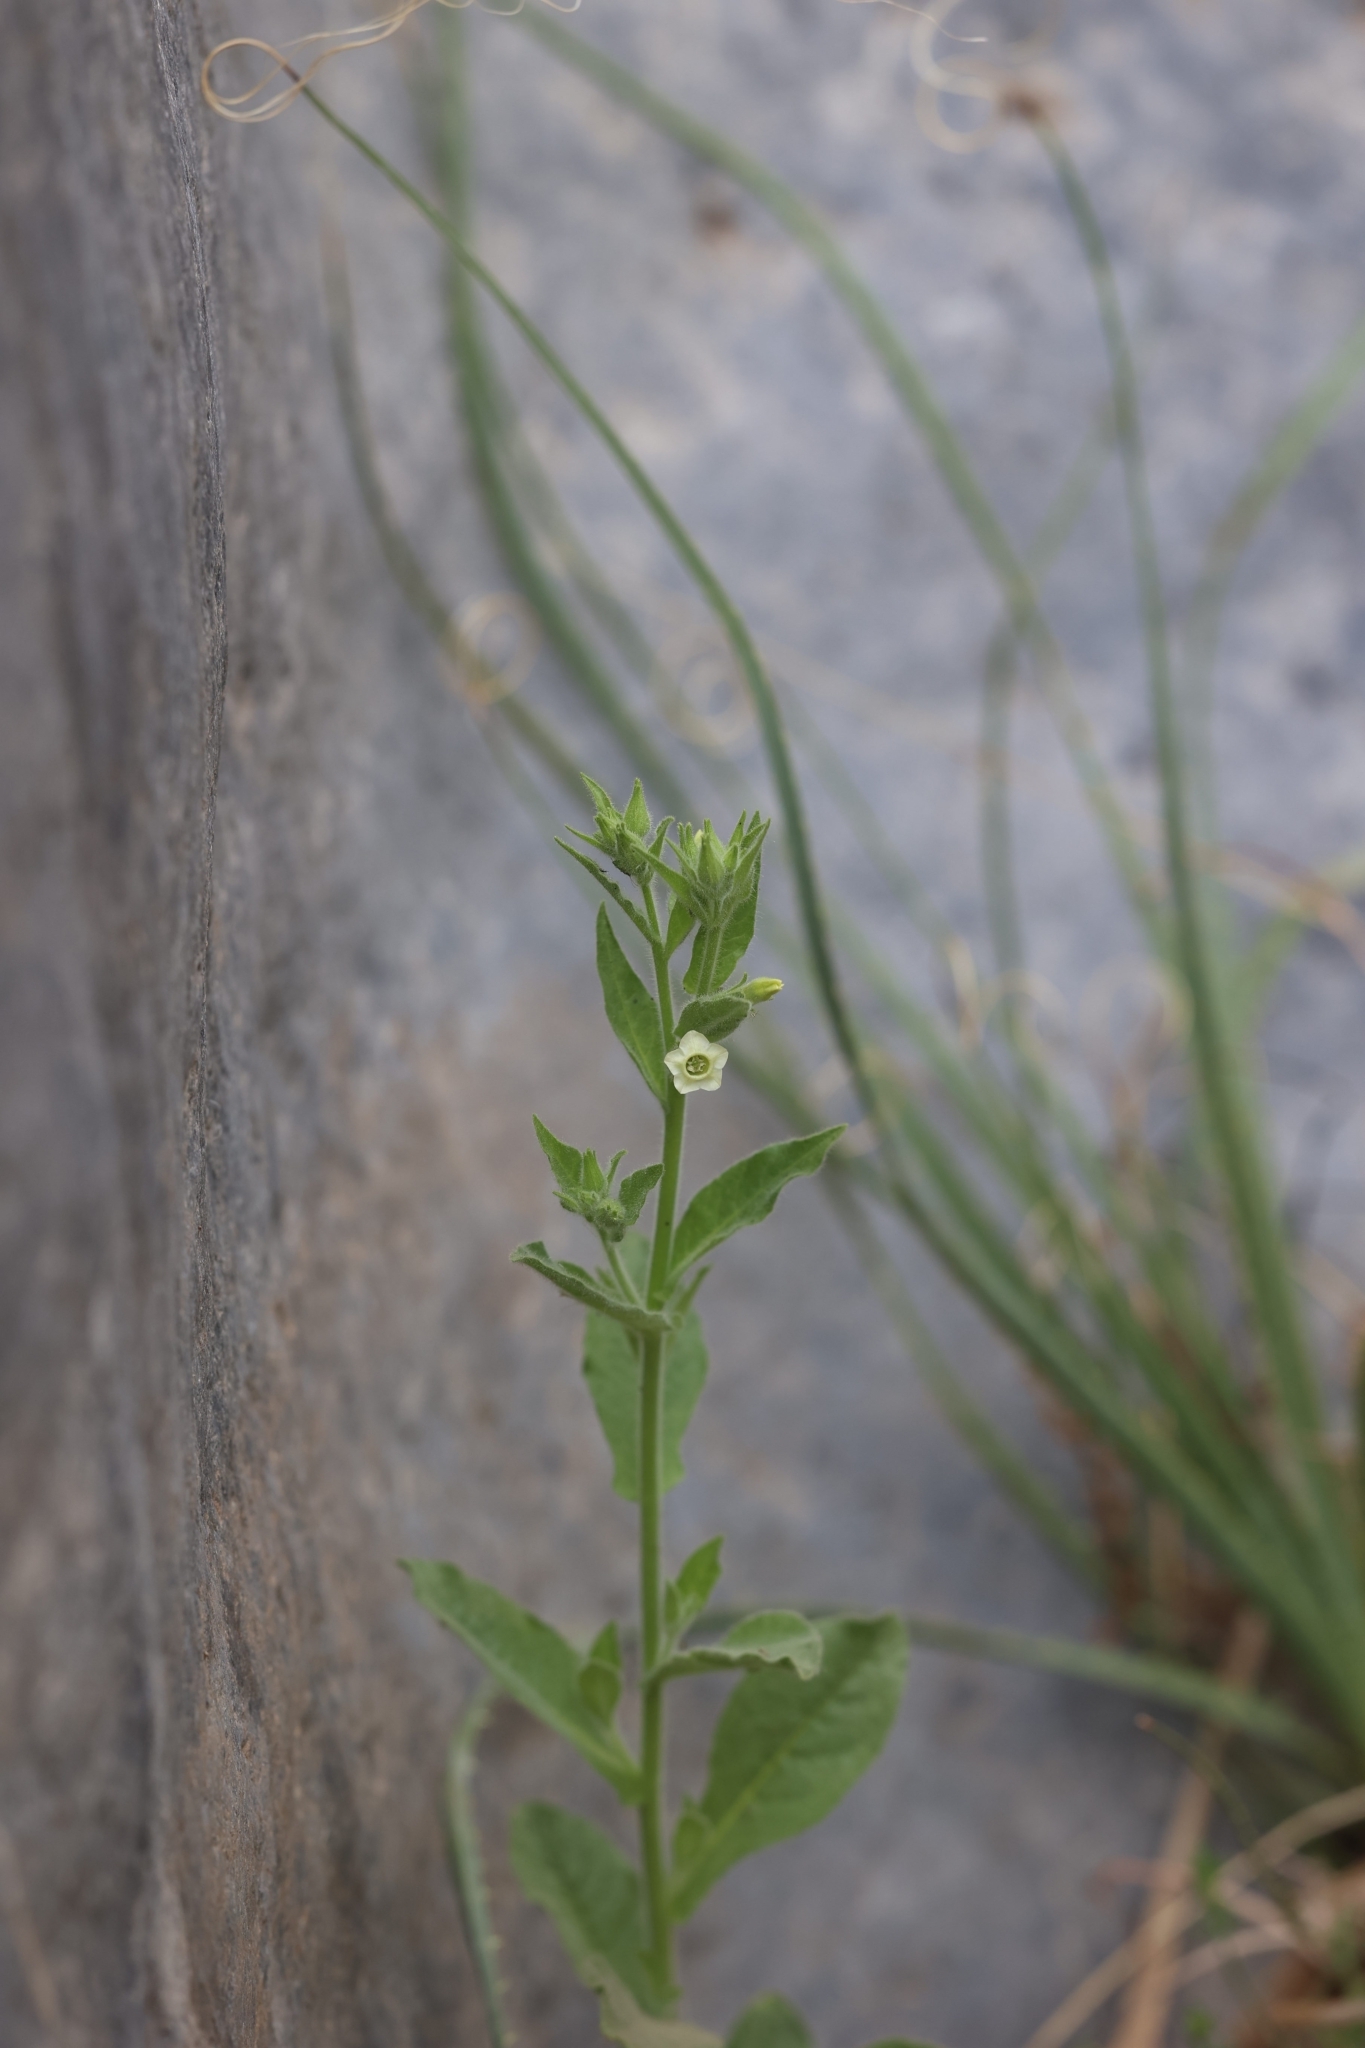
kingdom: Plantae
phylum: Tracheophyta
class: Magnoliopsida
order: Solanales
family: Solanaceae
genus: Nicotiana
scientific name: Nicotiana obtusifolia
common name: Desert tobacco
